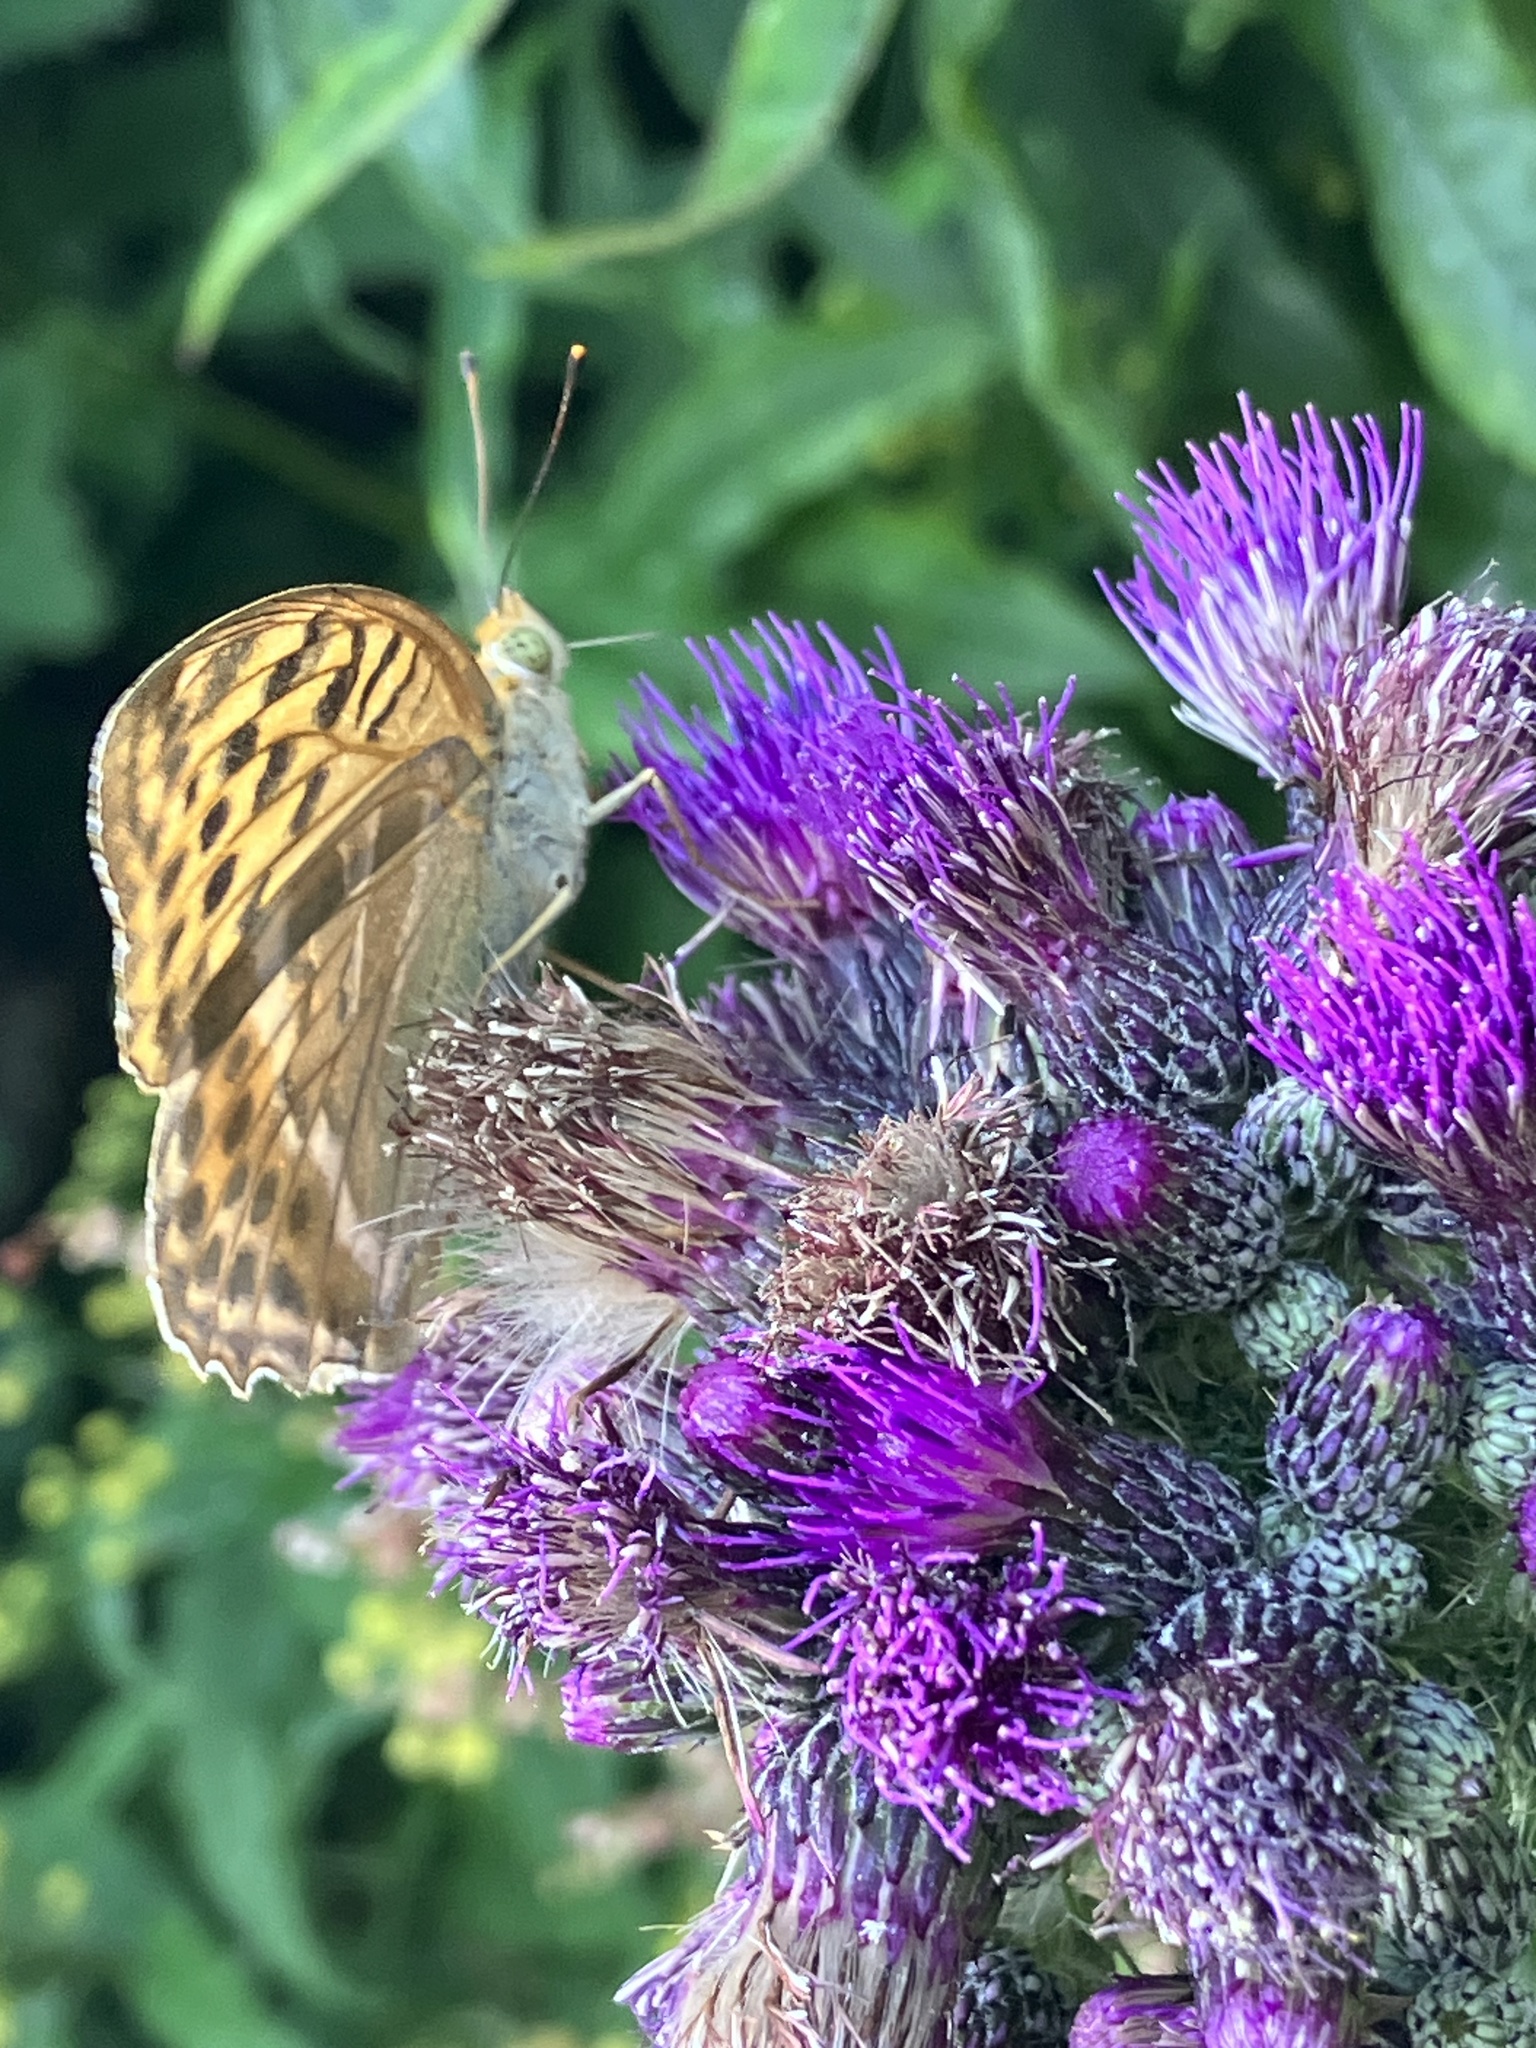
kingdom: Animalia
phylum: Arthropoda
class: Insecta
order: Lepidoptera
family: Nymphalidae
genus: Argynnis
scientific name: Argynnis paphia
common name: Silver-washed fritillary
